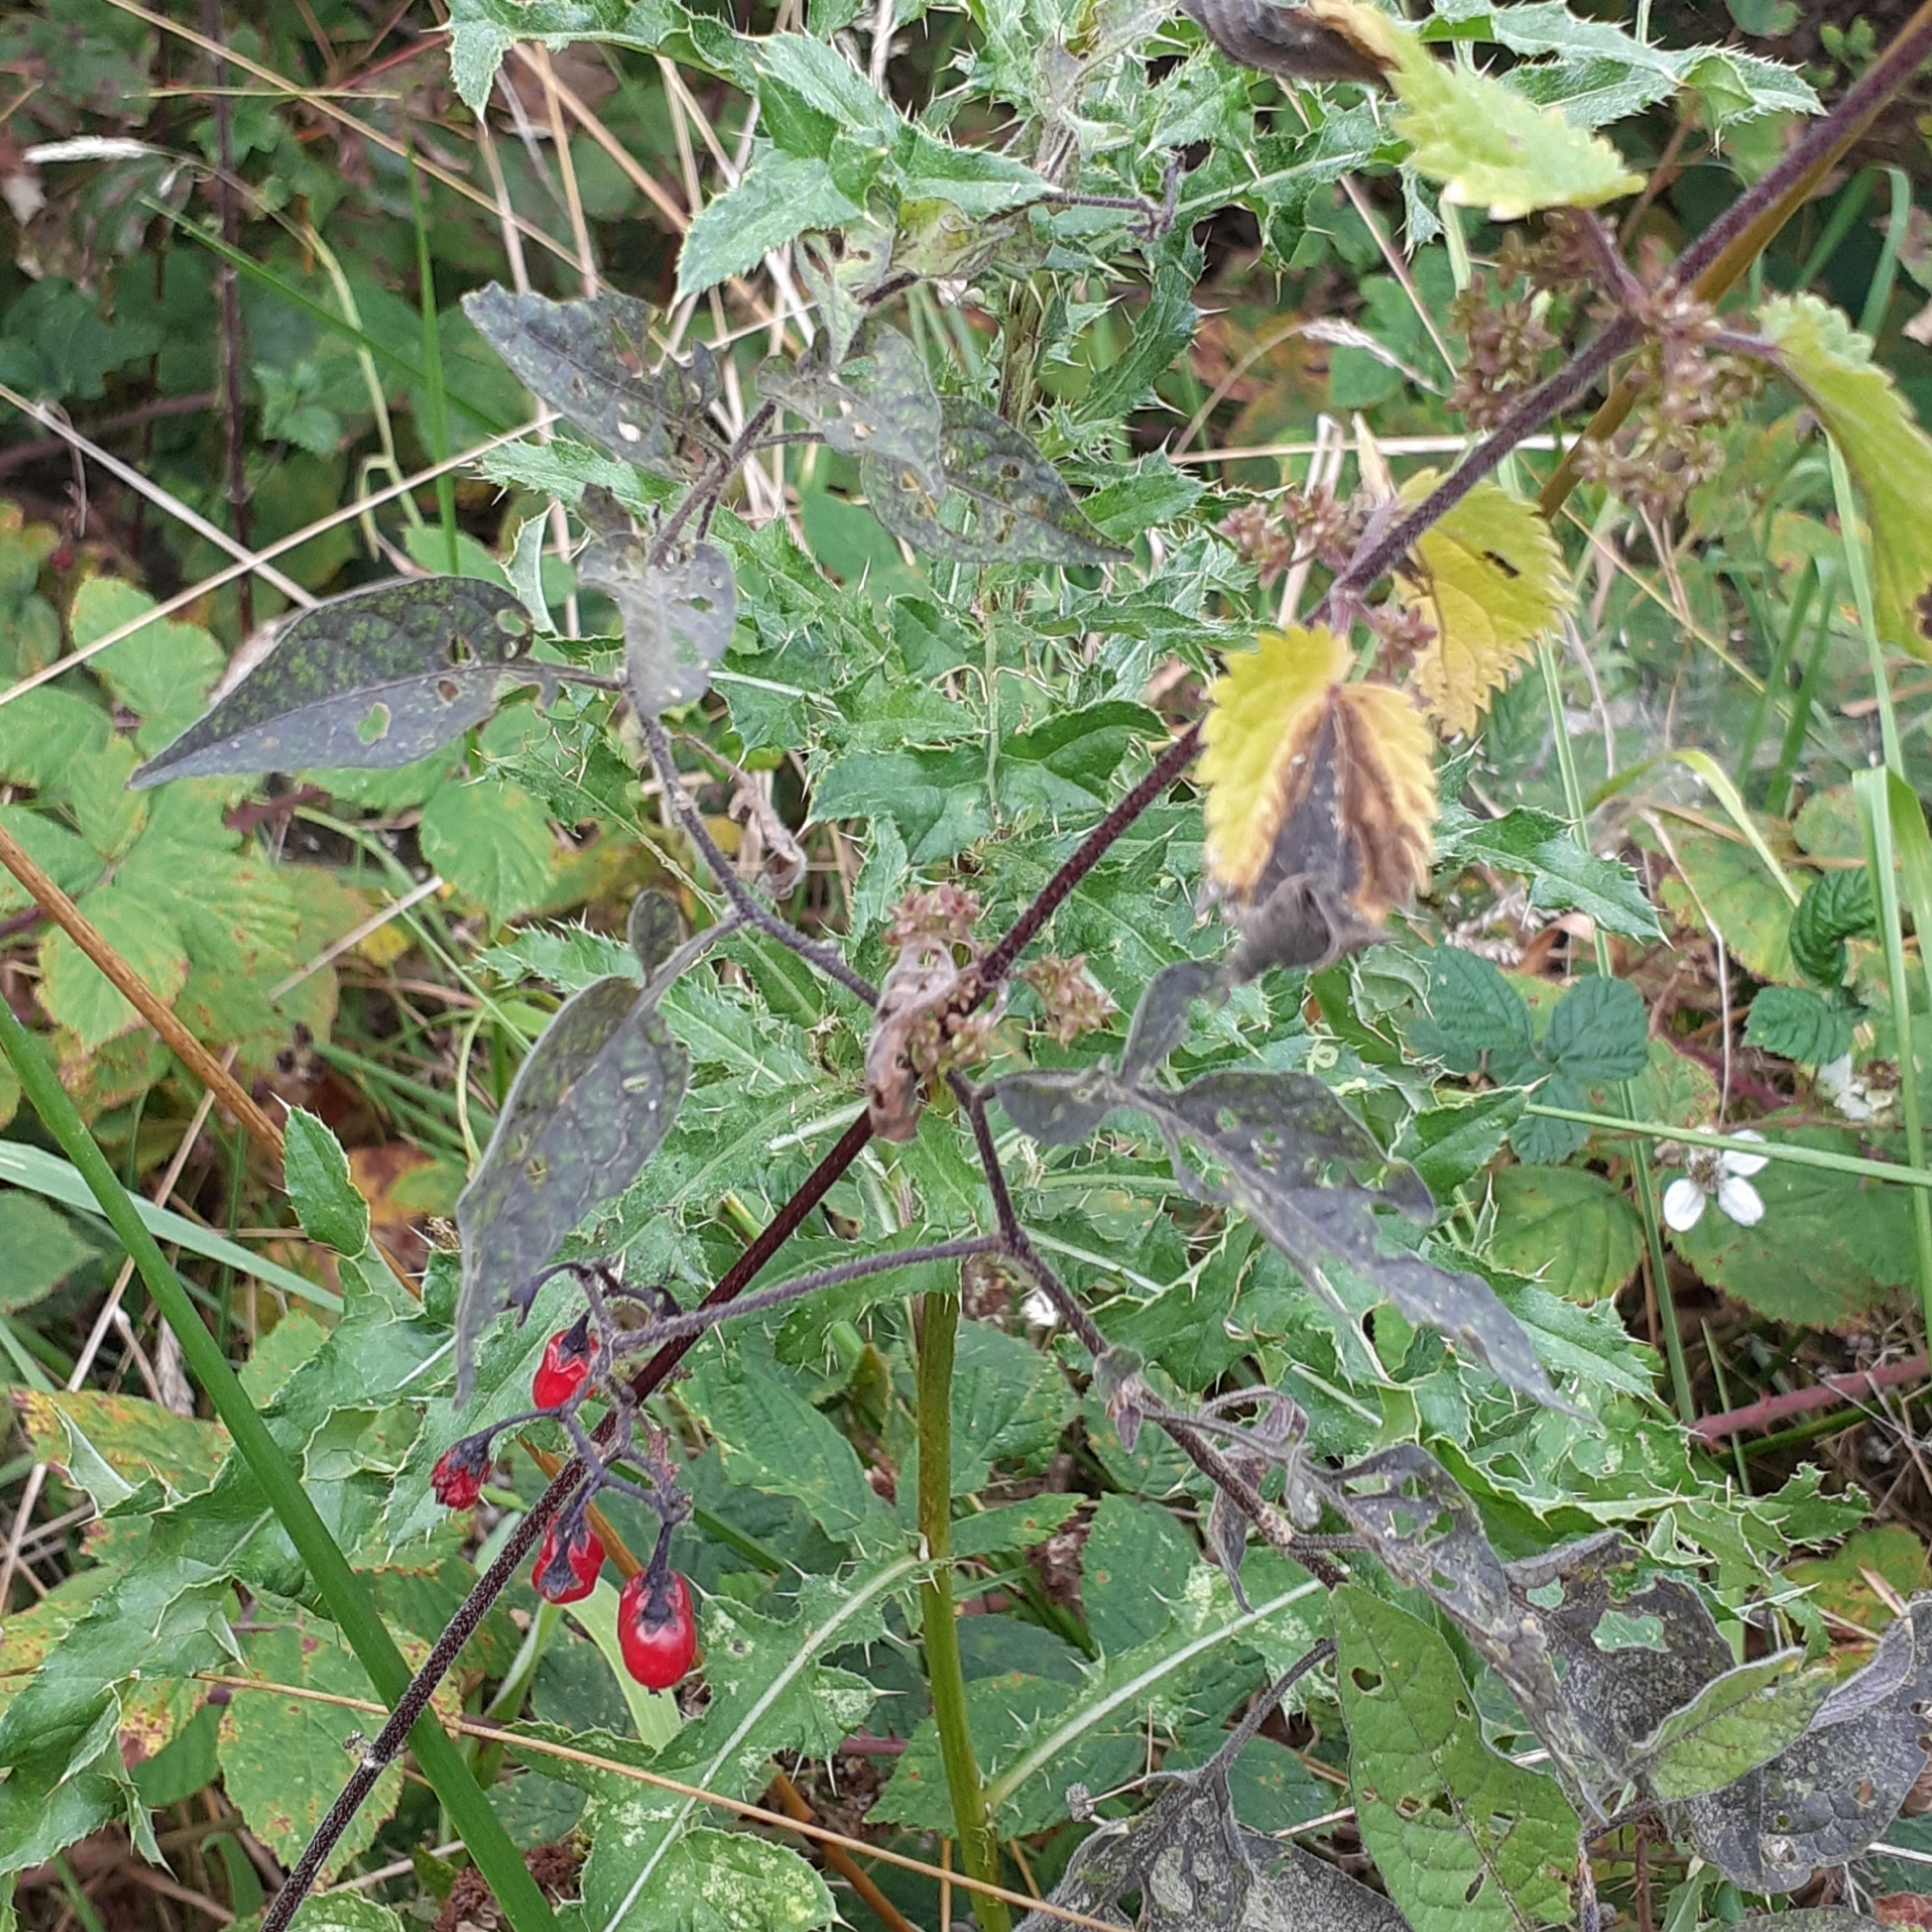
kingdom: Plantae
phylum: Tracheophyta
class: Magnoliopsida
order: Solanales
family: Solanaceae
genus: Solanum
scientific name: Solanum dulcamara
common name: Climbing nightshade
